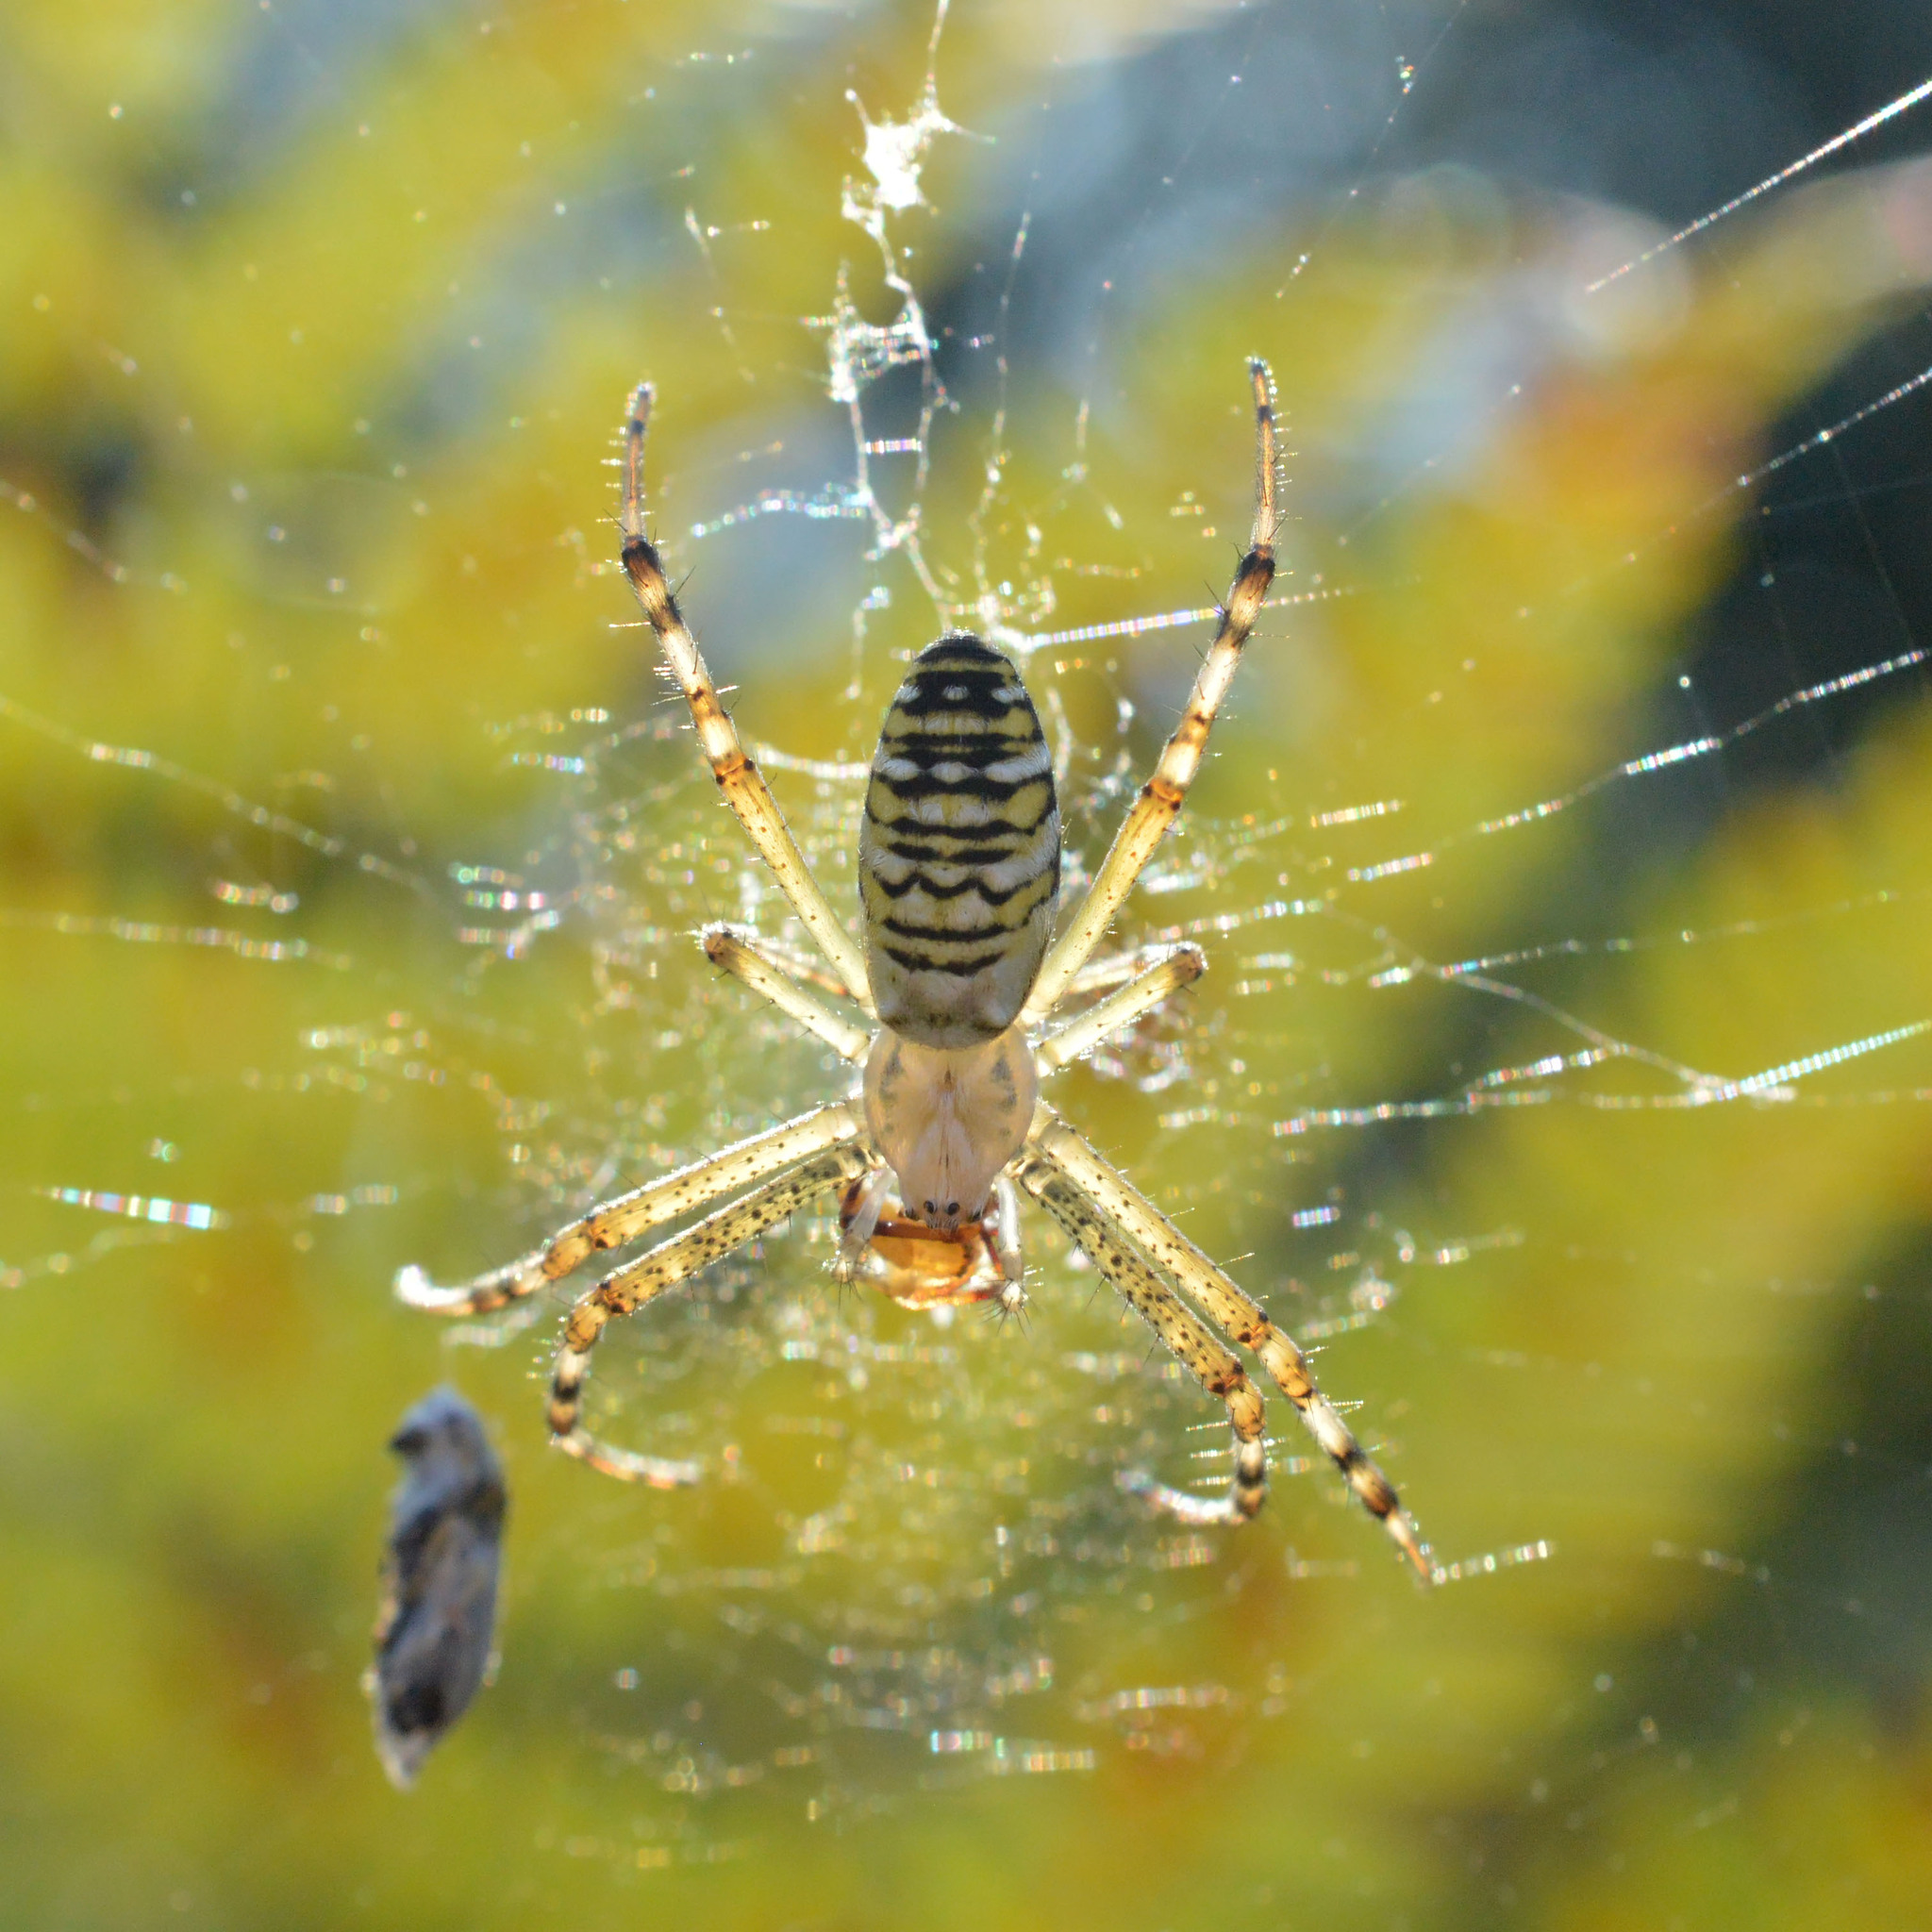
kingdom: Animalia
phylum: Arthropoda
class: Arachnida
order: Araneae
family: Araneidae
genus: Argiope
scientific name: Argiope bruennichi
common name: Wasp spider
